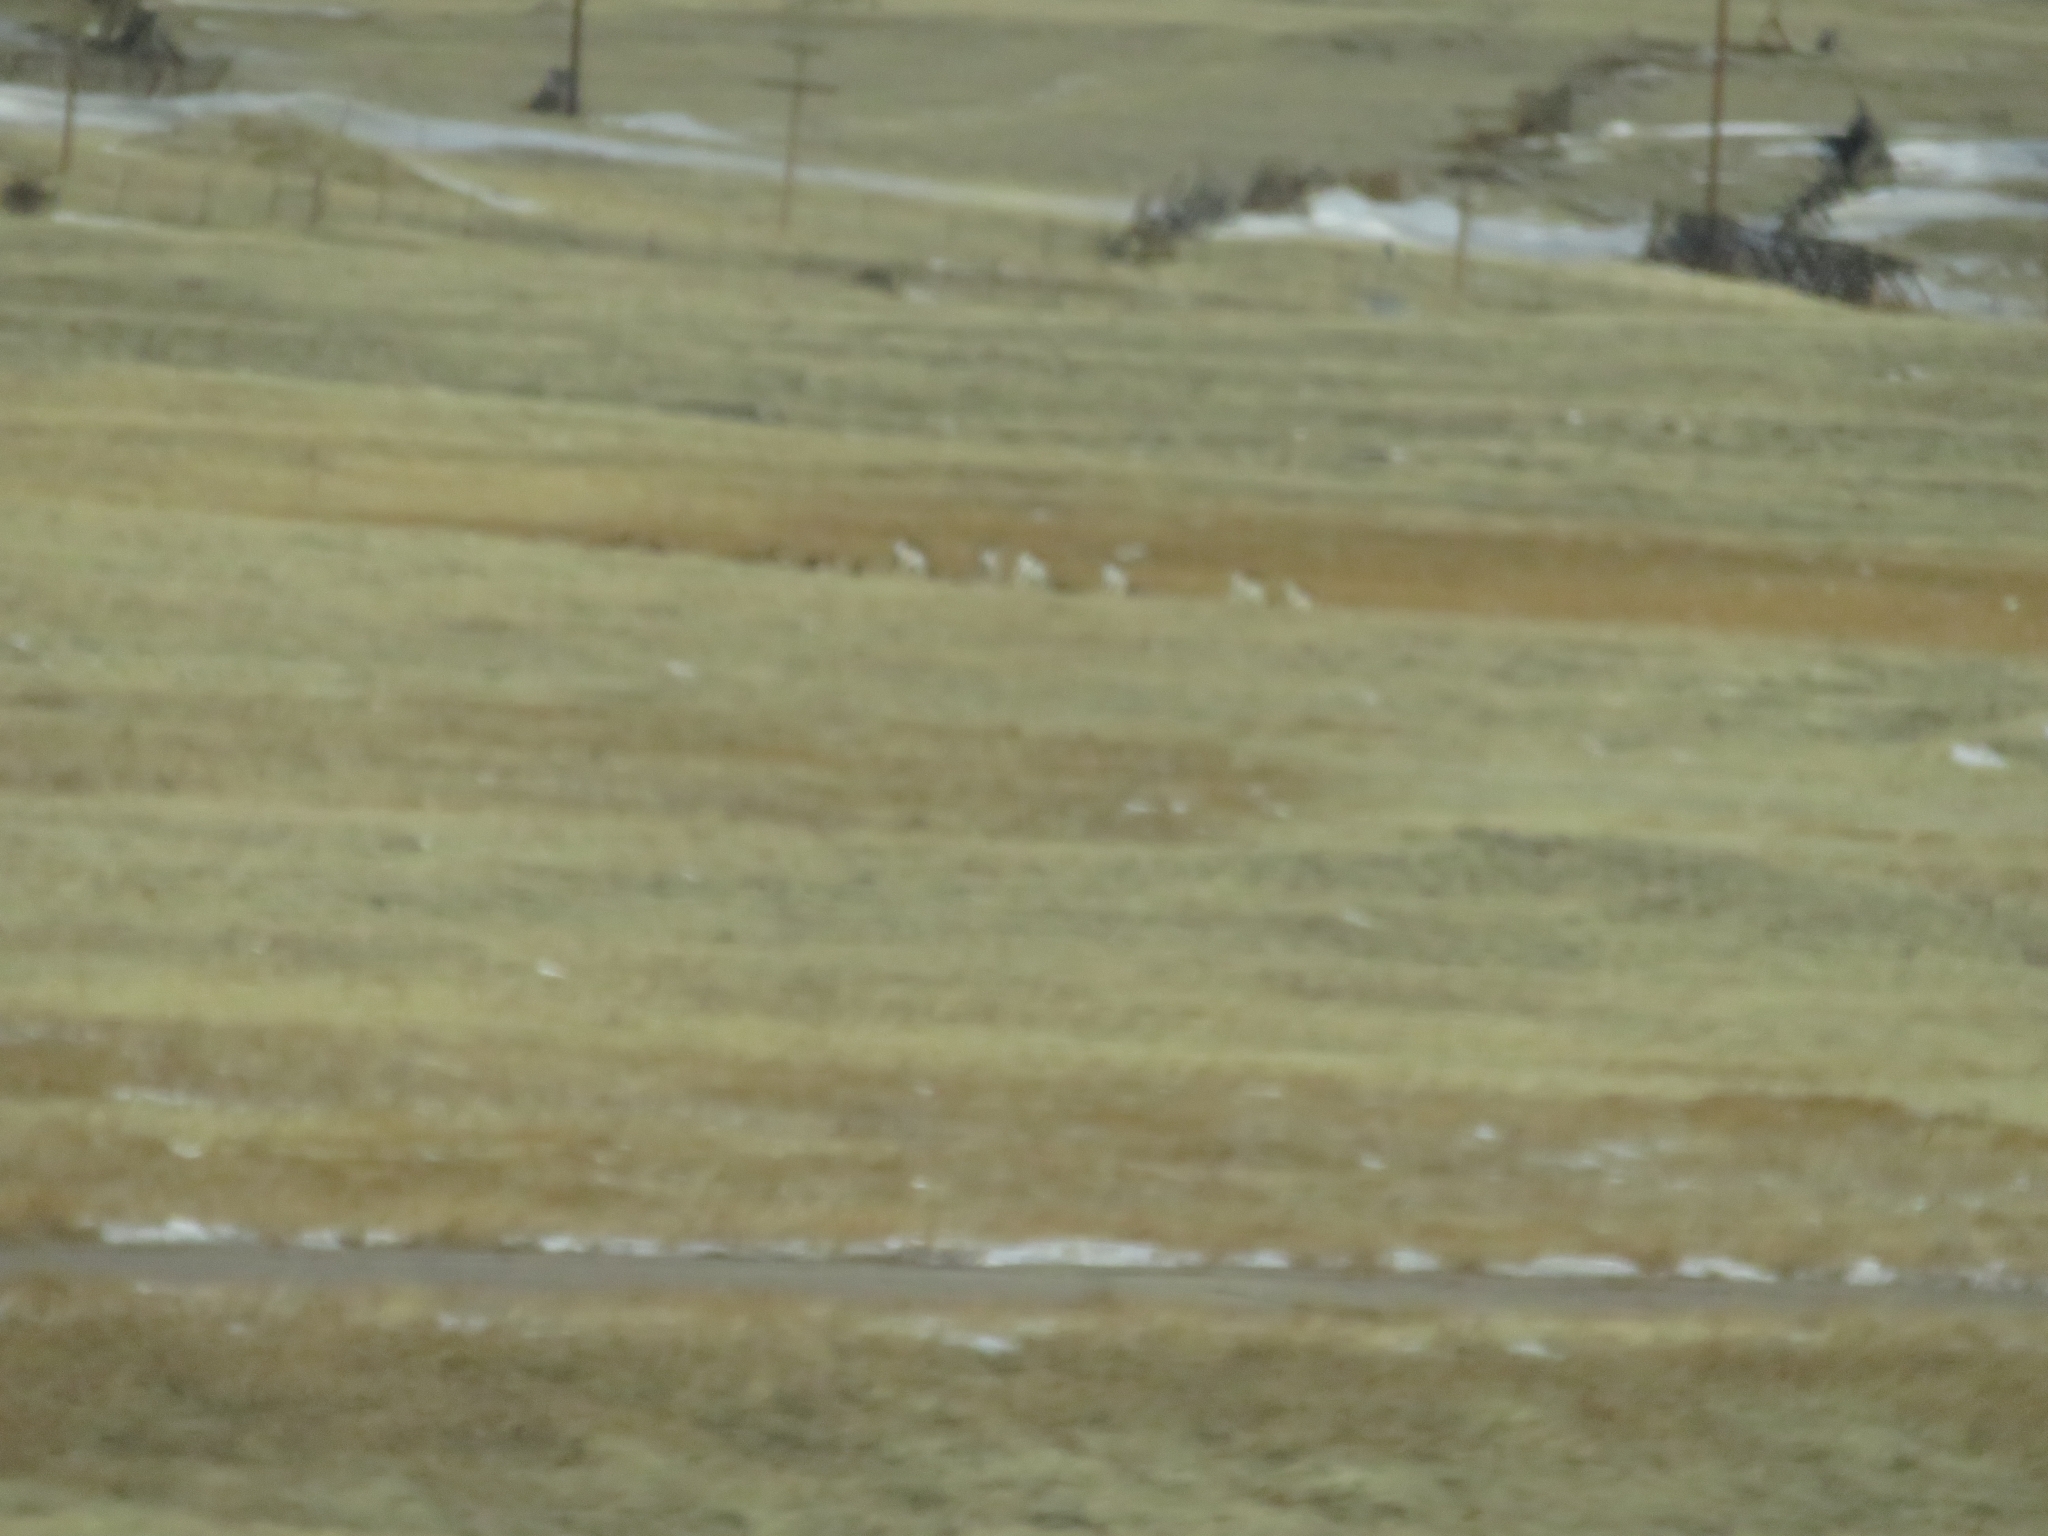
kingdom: Animalia
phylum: Chordata
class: Mammalia
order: Artiodactyla
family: Antilocapridae
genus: Antilocapra
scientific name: Antilocapra americana
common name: Pronghorn
